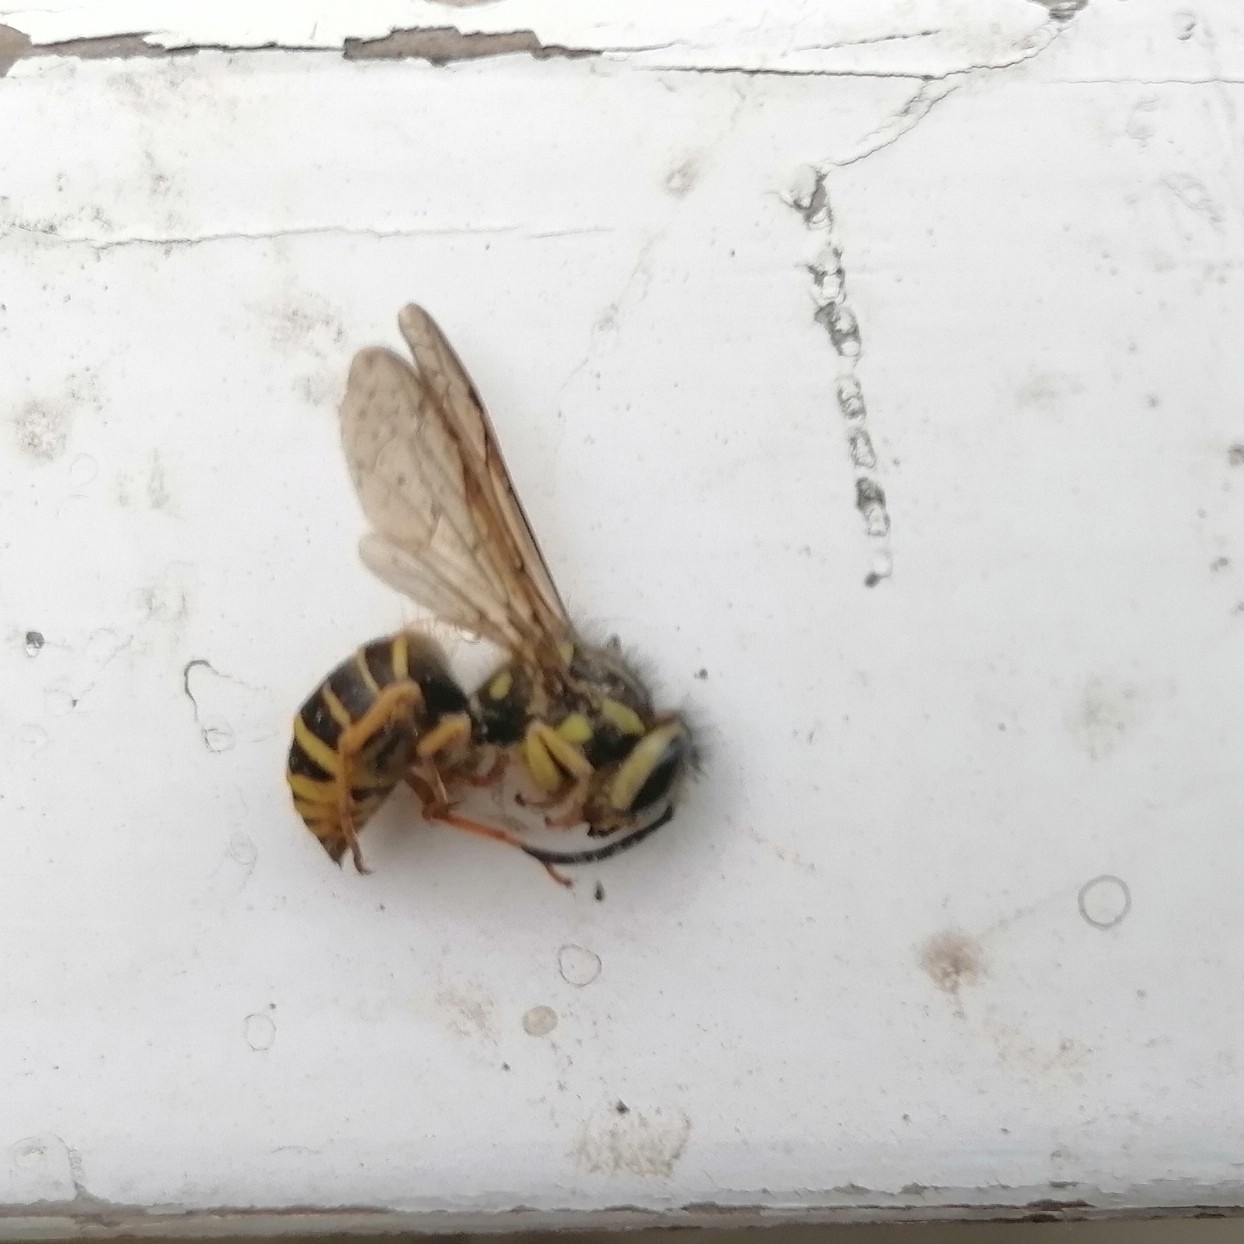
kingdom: Animalia
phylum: Arthropoda
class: Insecta
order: Hymenoptera
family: Vespidae
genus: Vespula
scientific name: Vespula squamosa
